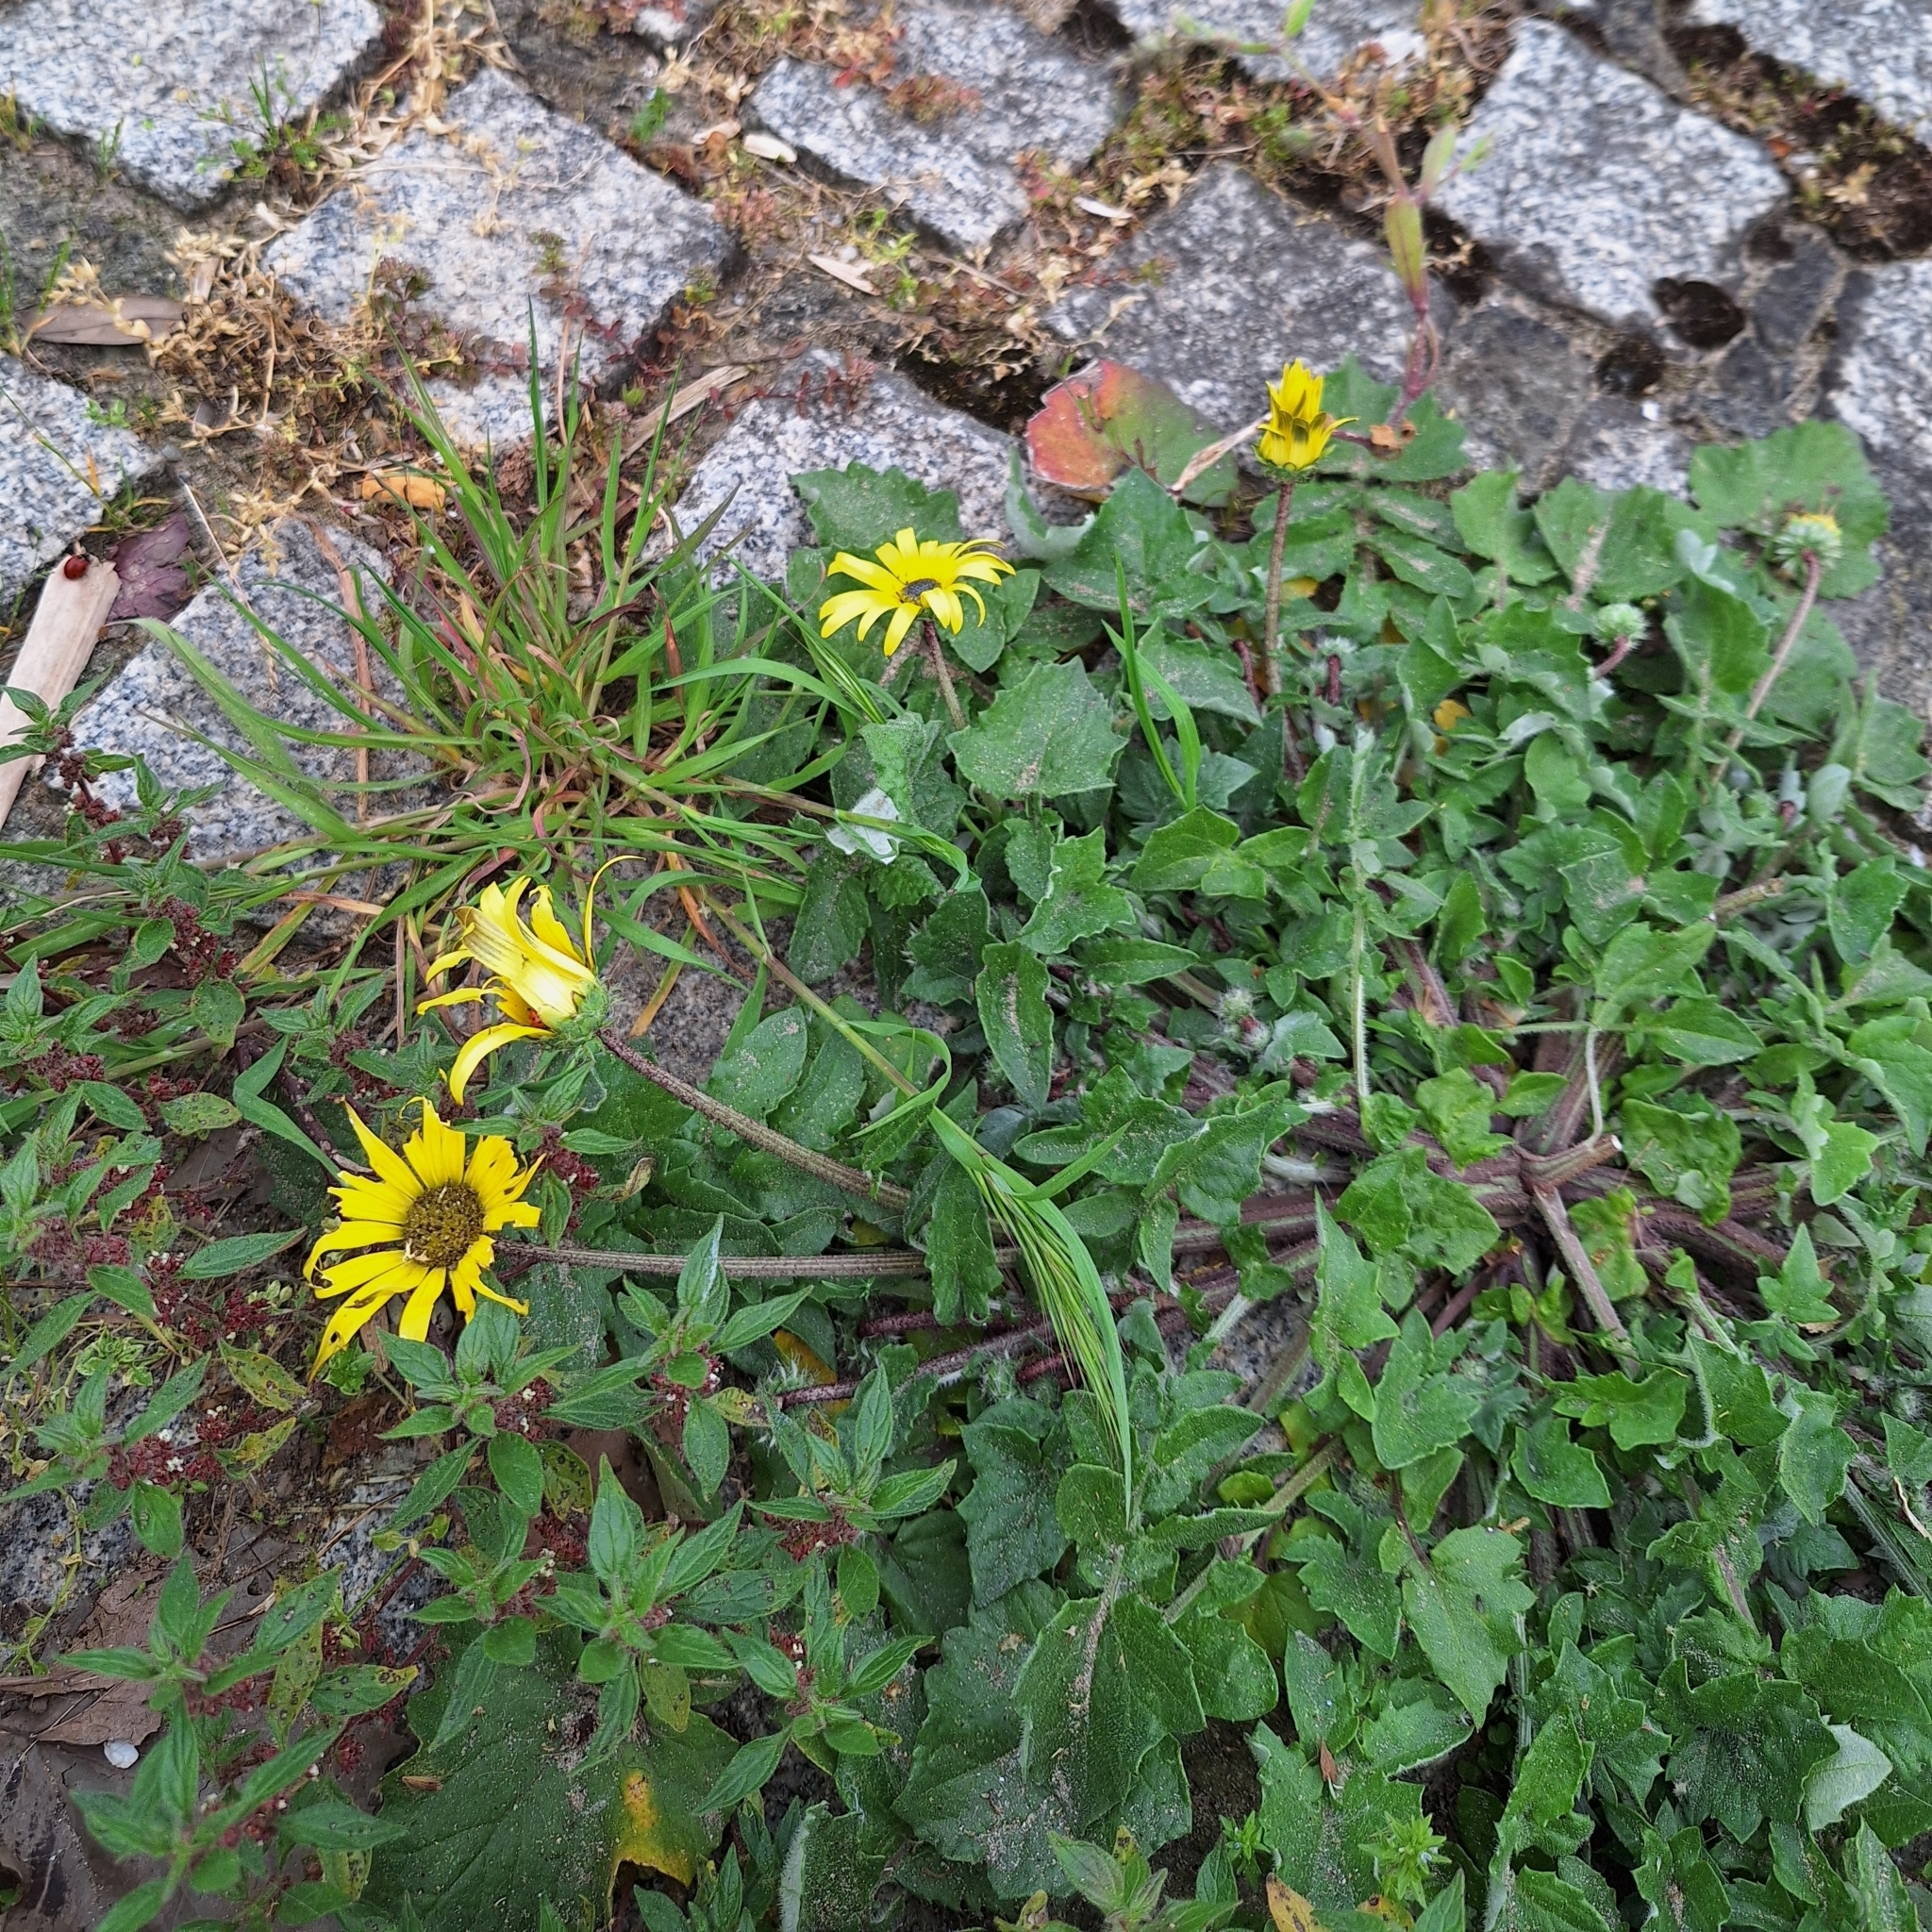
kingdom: Plantae
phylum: Tracheophyta
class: Magnoliopsida
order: Asterales
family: Asteraceae
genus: Arctotheca
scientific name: Arctotheca calendula
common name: Capeweed
